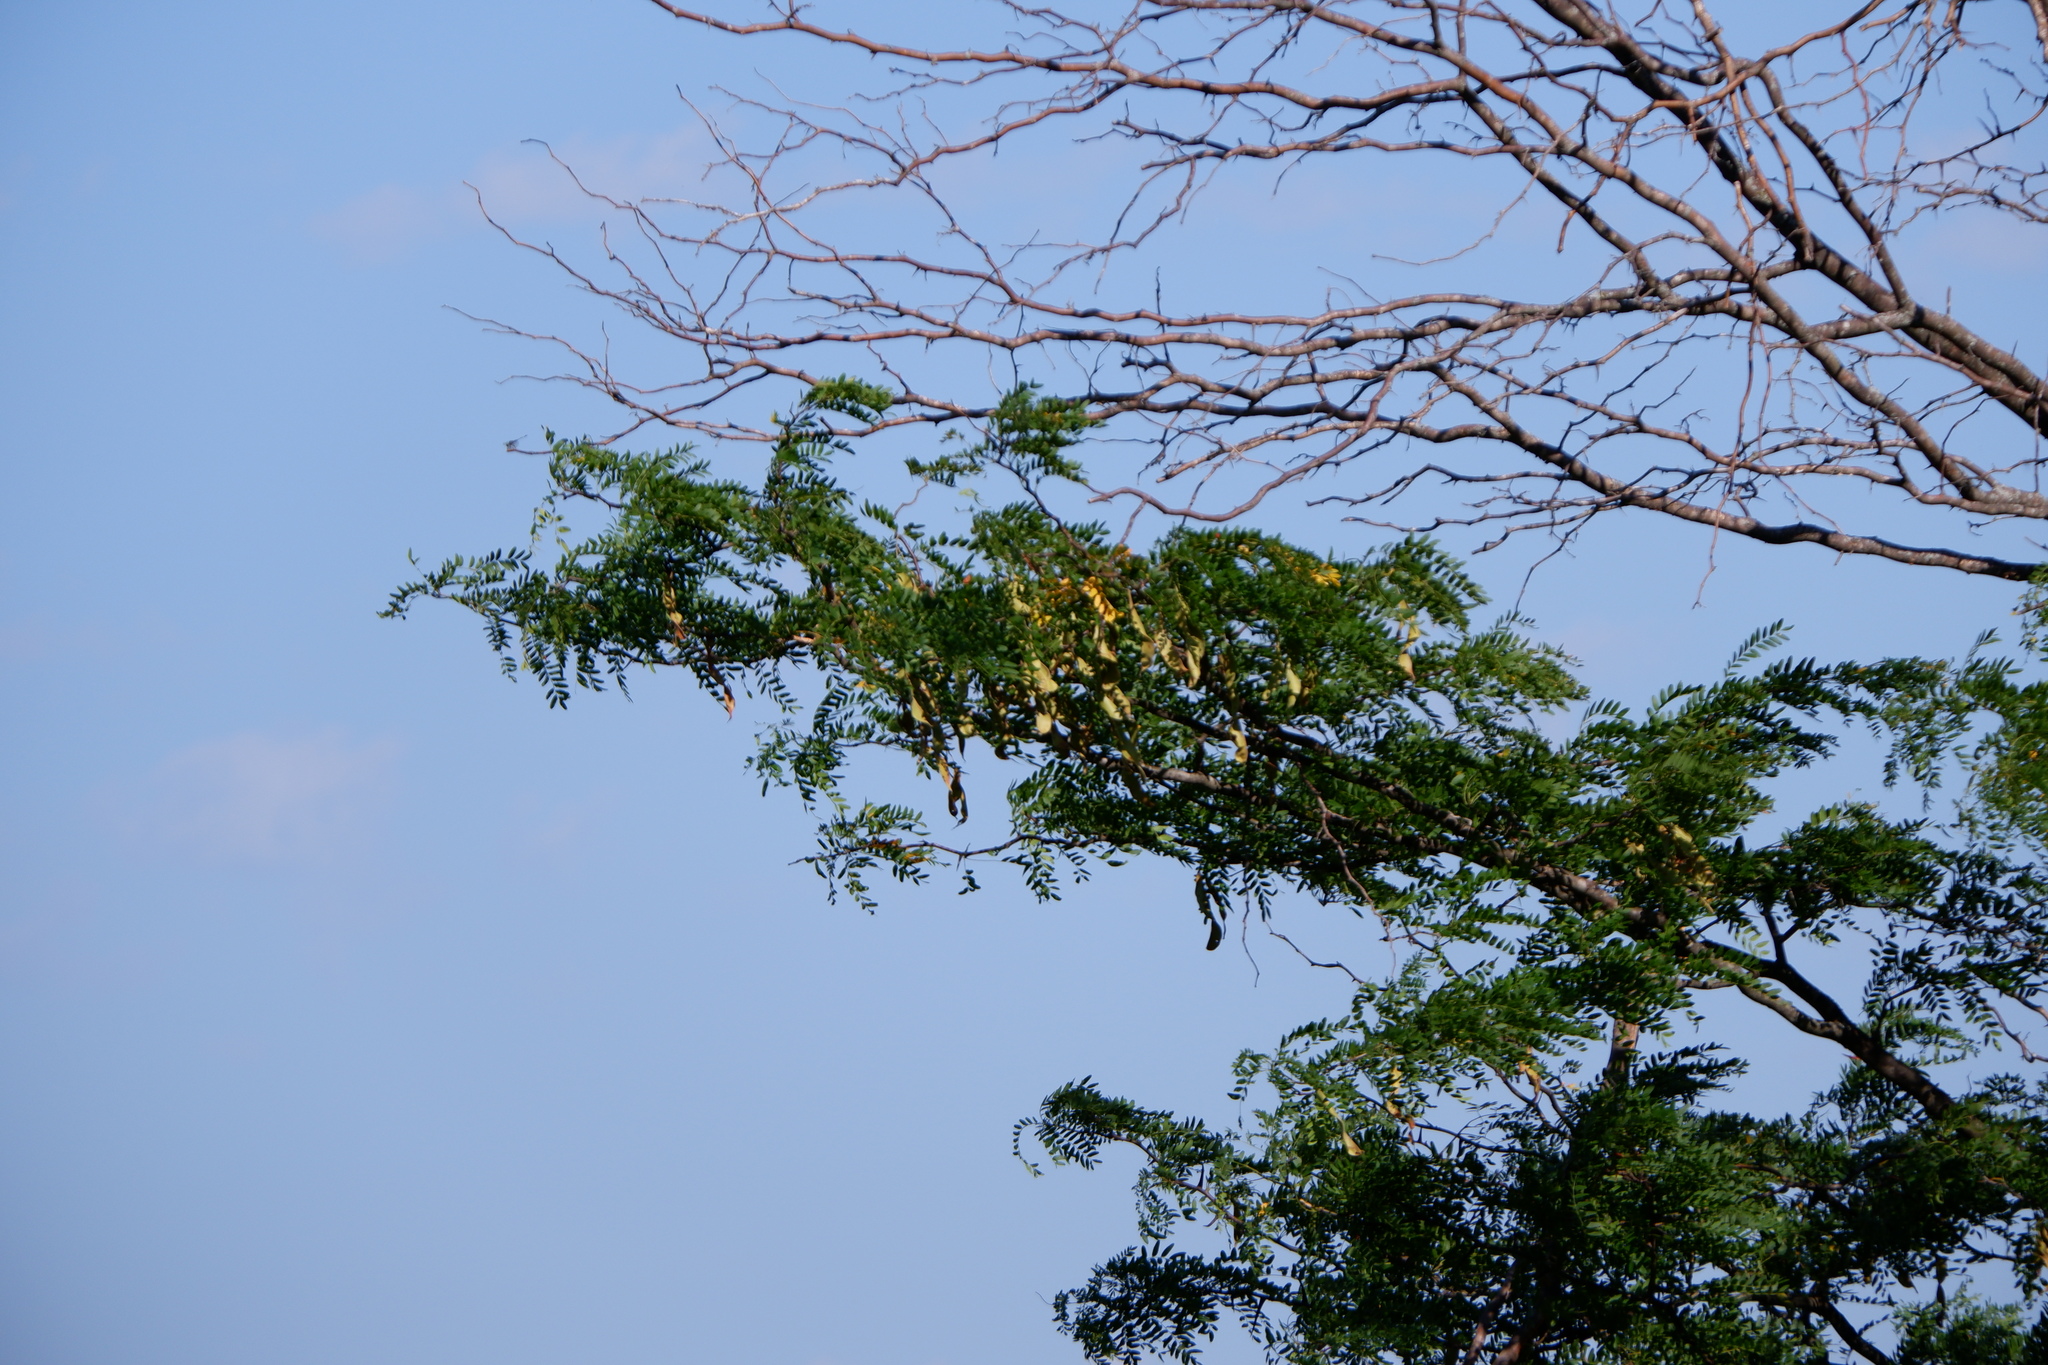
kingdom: Plantae
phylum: Tracheophyta
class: Magnoliopsida
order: Fabales
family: Fabaceae
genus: Gleditsia
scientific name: Gleditsia triacanthos
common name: Common honeylocust
